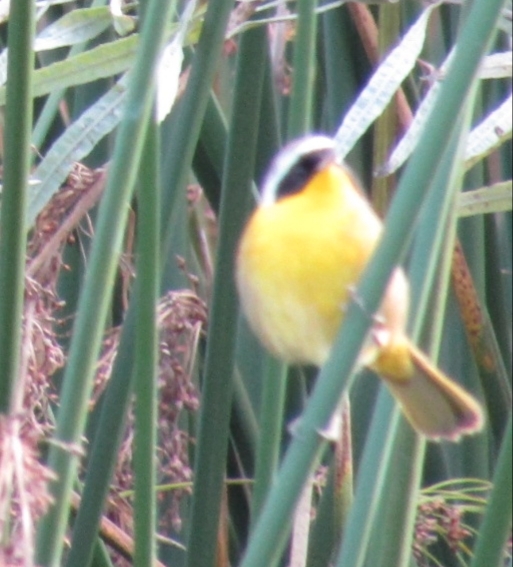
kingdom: Animalia
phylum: Chordata
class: Aves
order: Passeriformes
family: Parulidae
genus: Geothlypis
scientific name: Geothlypis trichas
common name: Common yellowthroat
